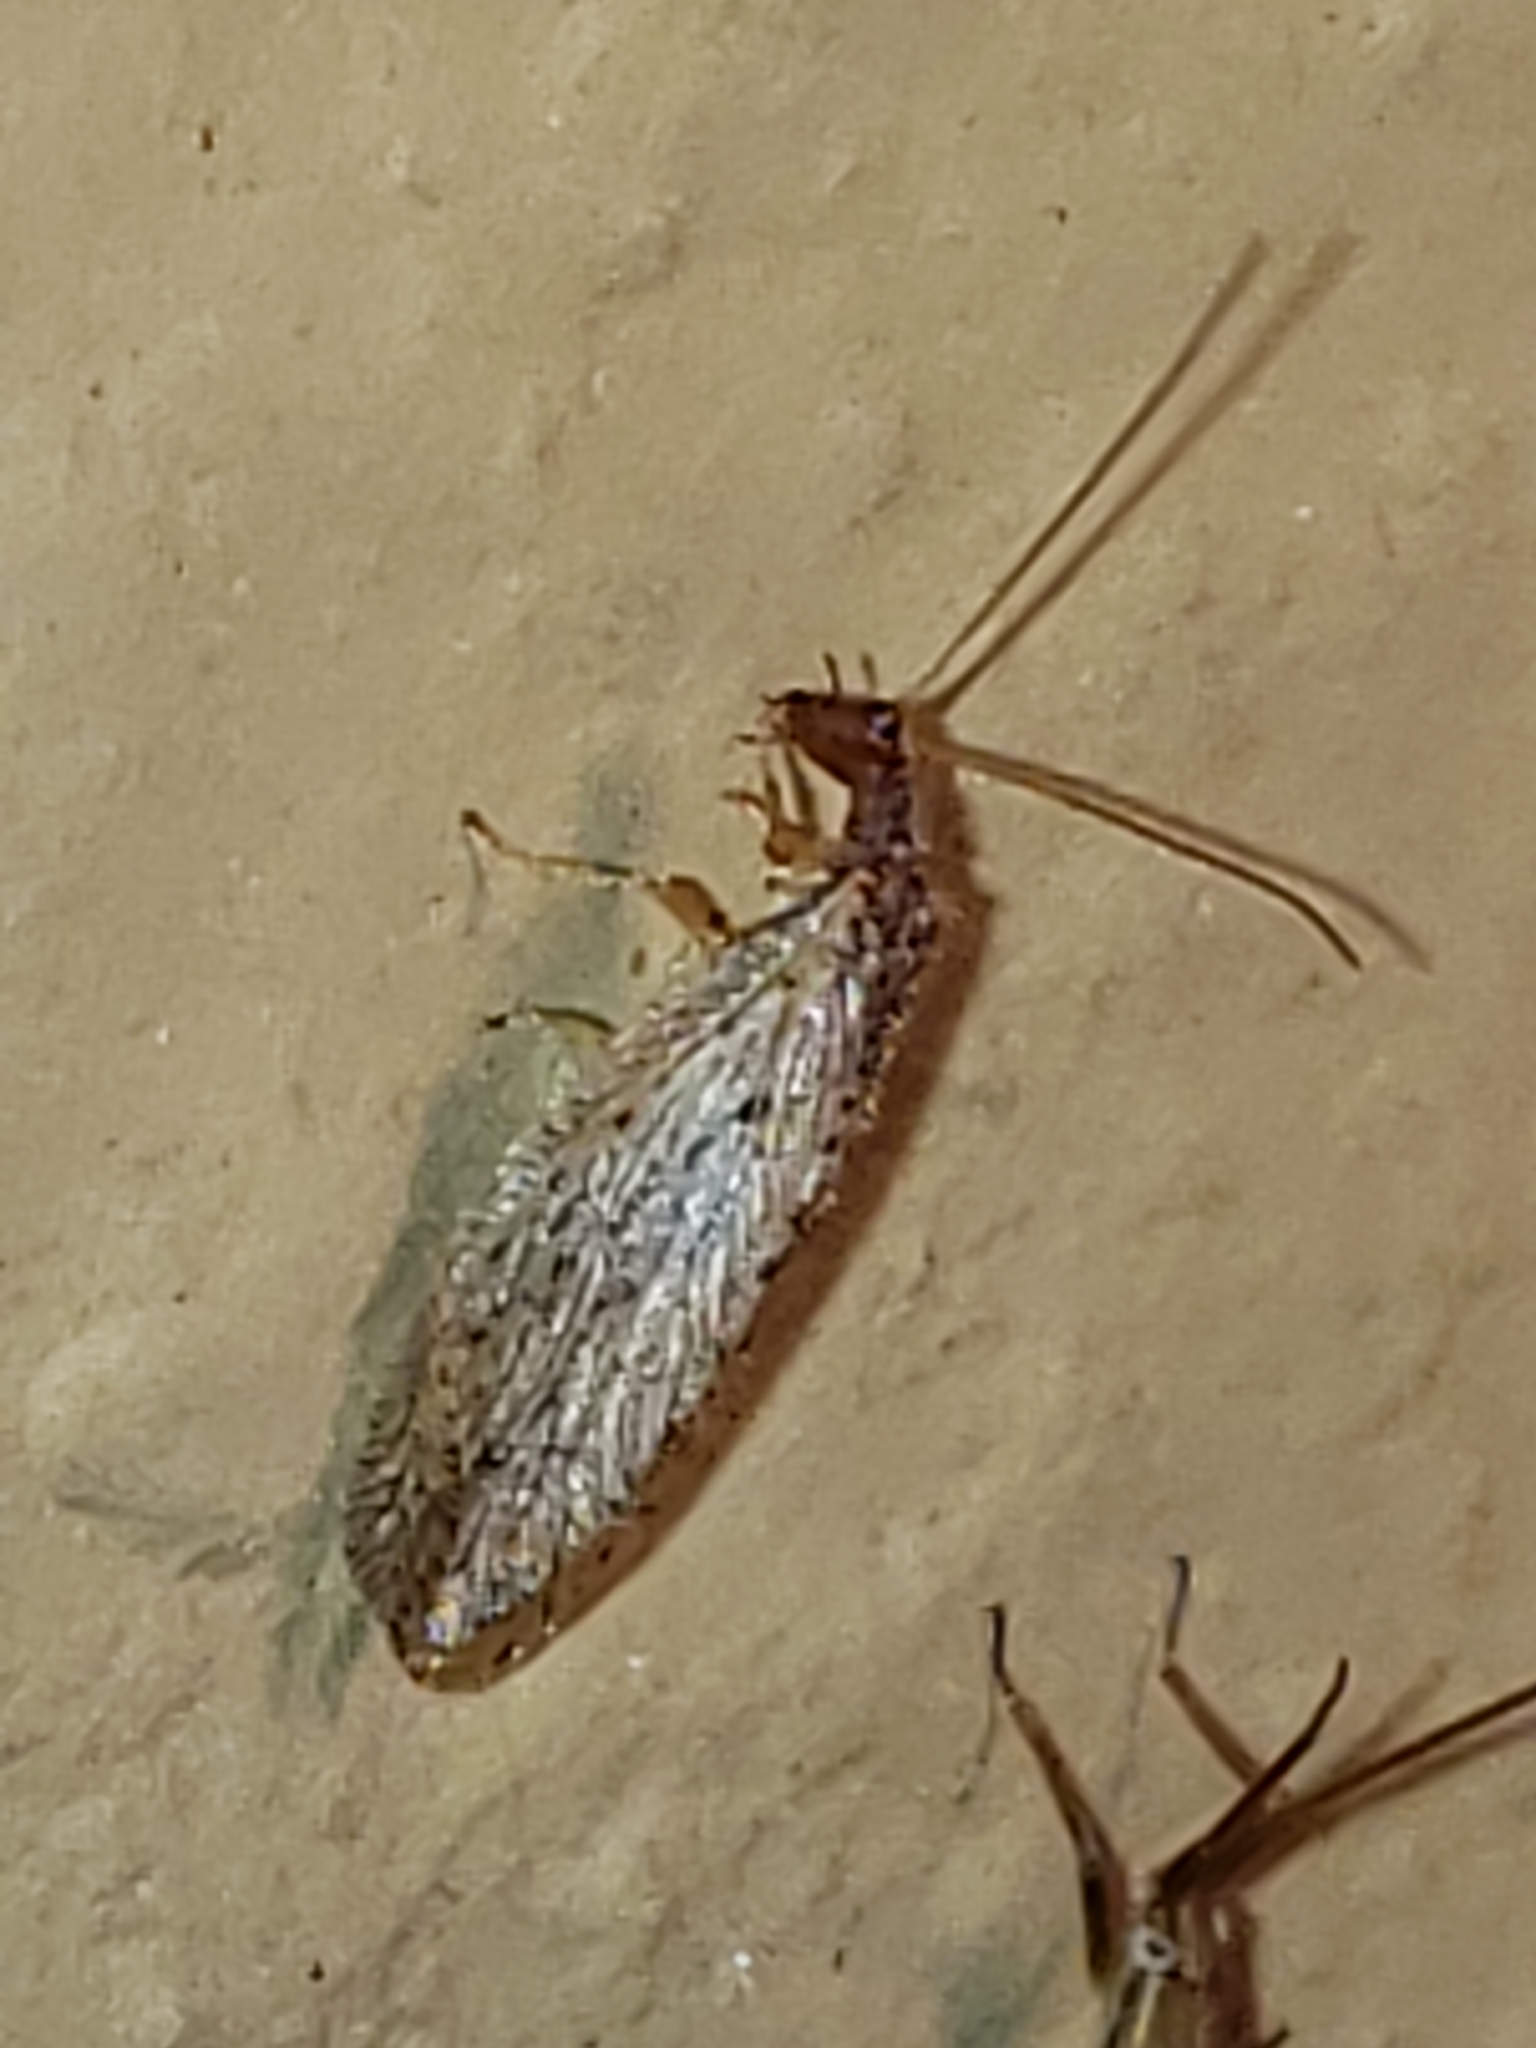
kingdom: Animalia
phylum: Arthropoda
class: Insecta
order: Neuroptera
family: Hemerobiidae
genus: Micromus
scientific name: Micromus subanticus
